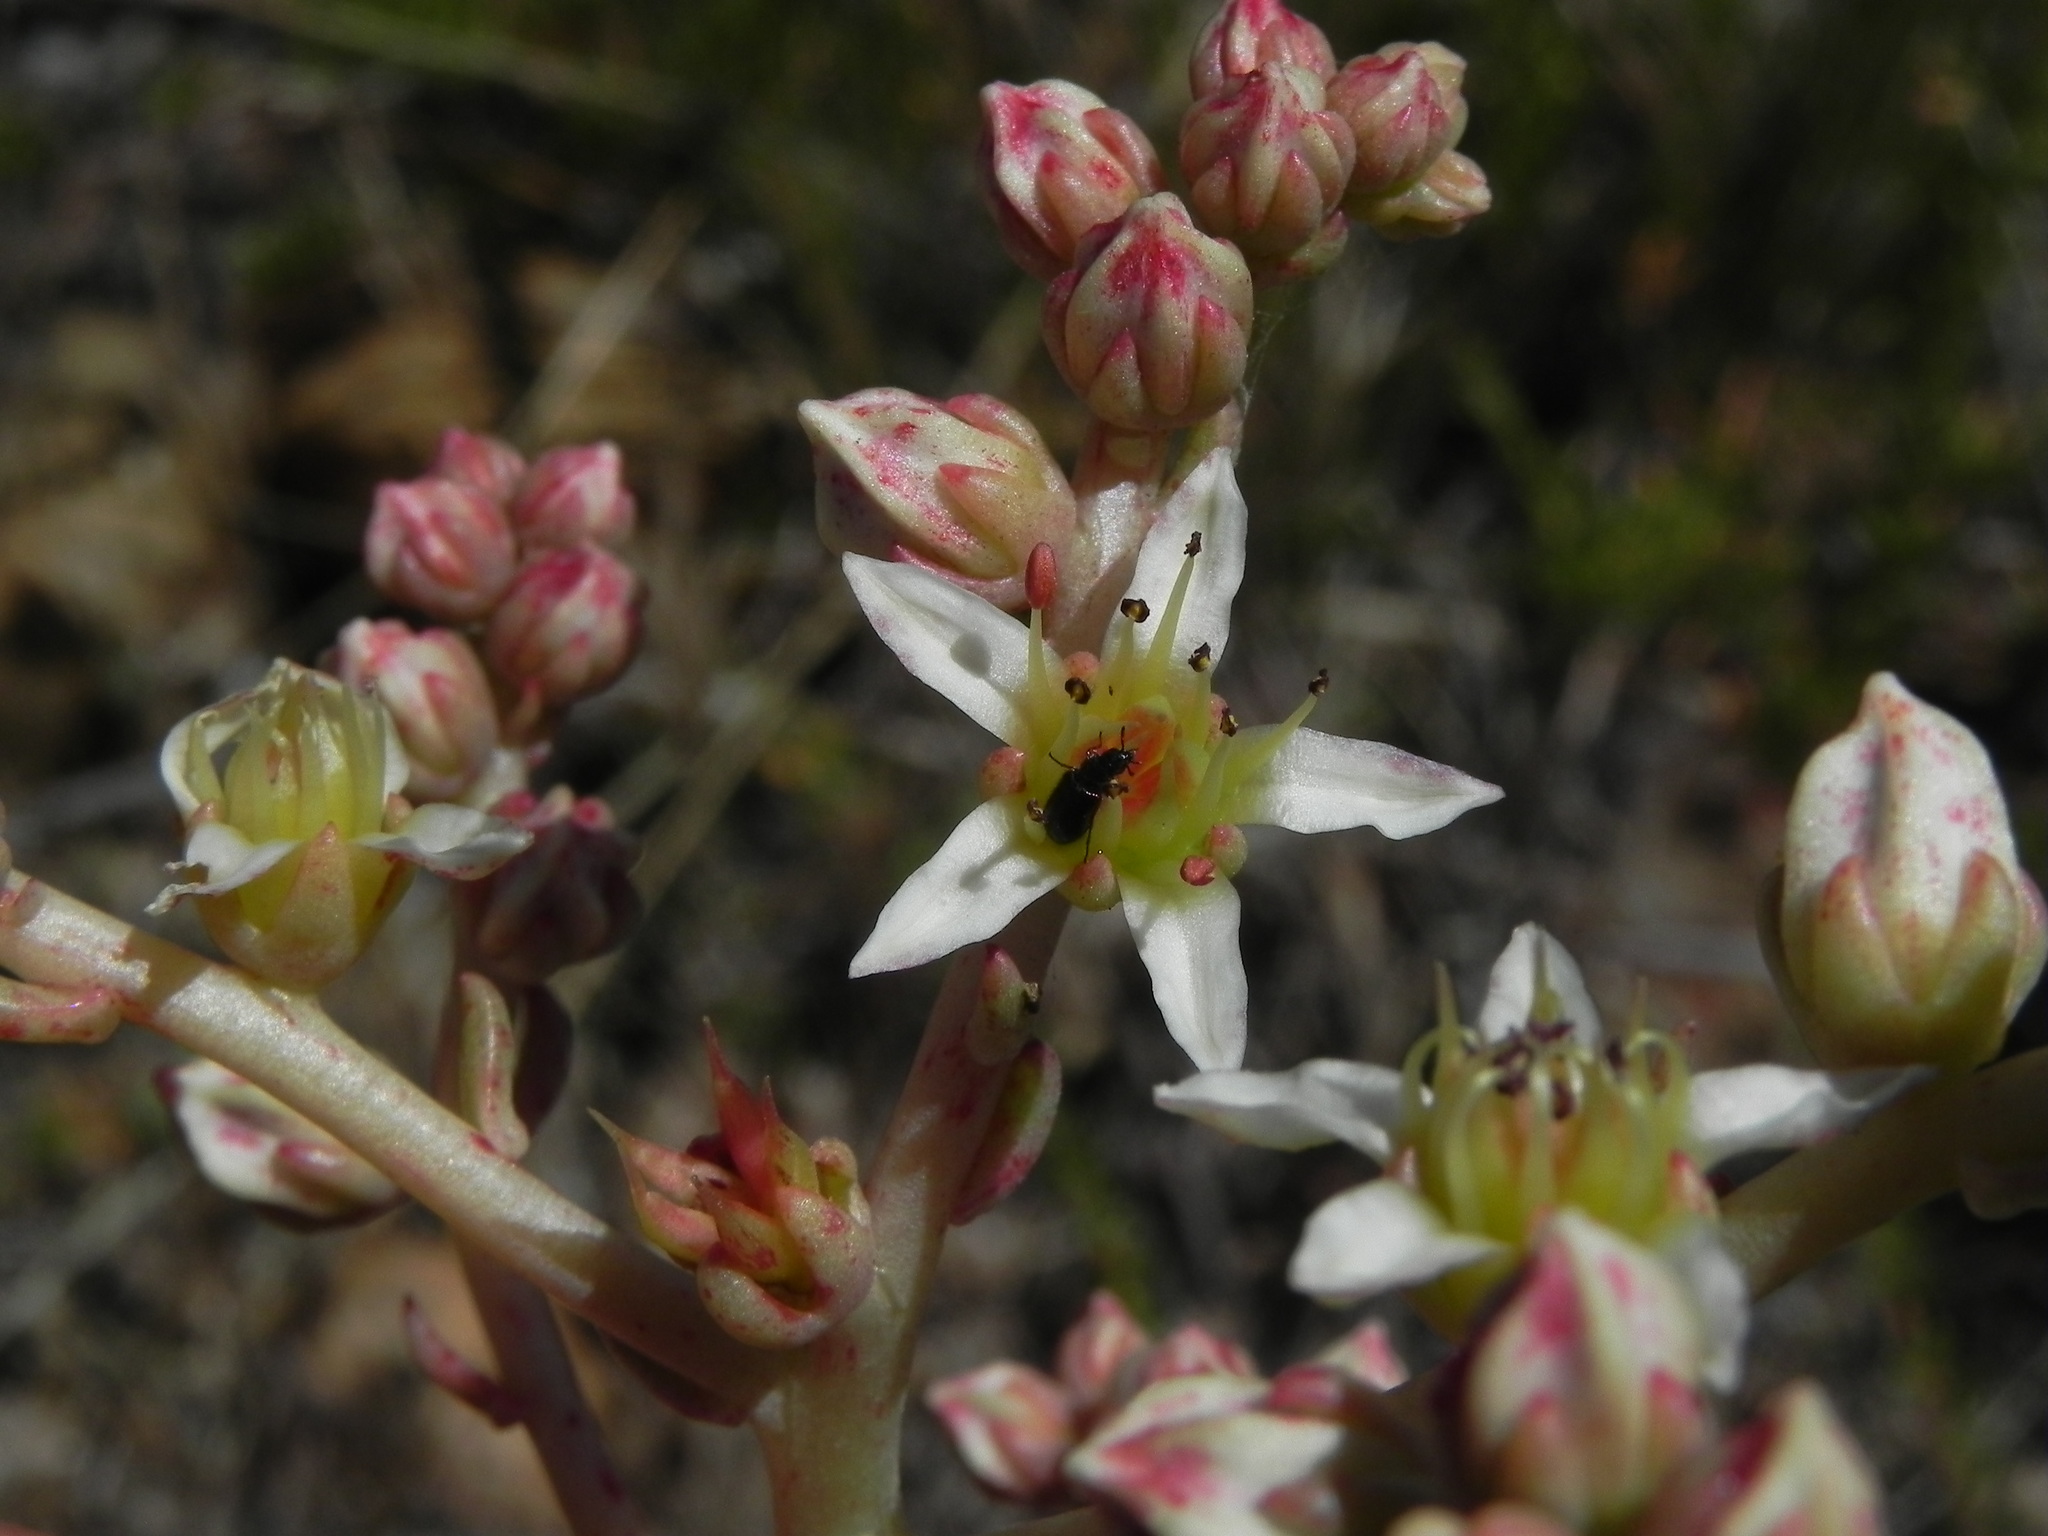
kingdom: Plantae
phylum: Tracheophyta
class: Magnoliopsida
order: Saxifragales
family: Crassulaceae
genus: Dudleya
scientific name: Dudleya edulis
